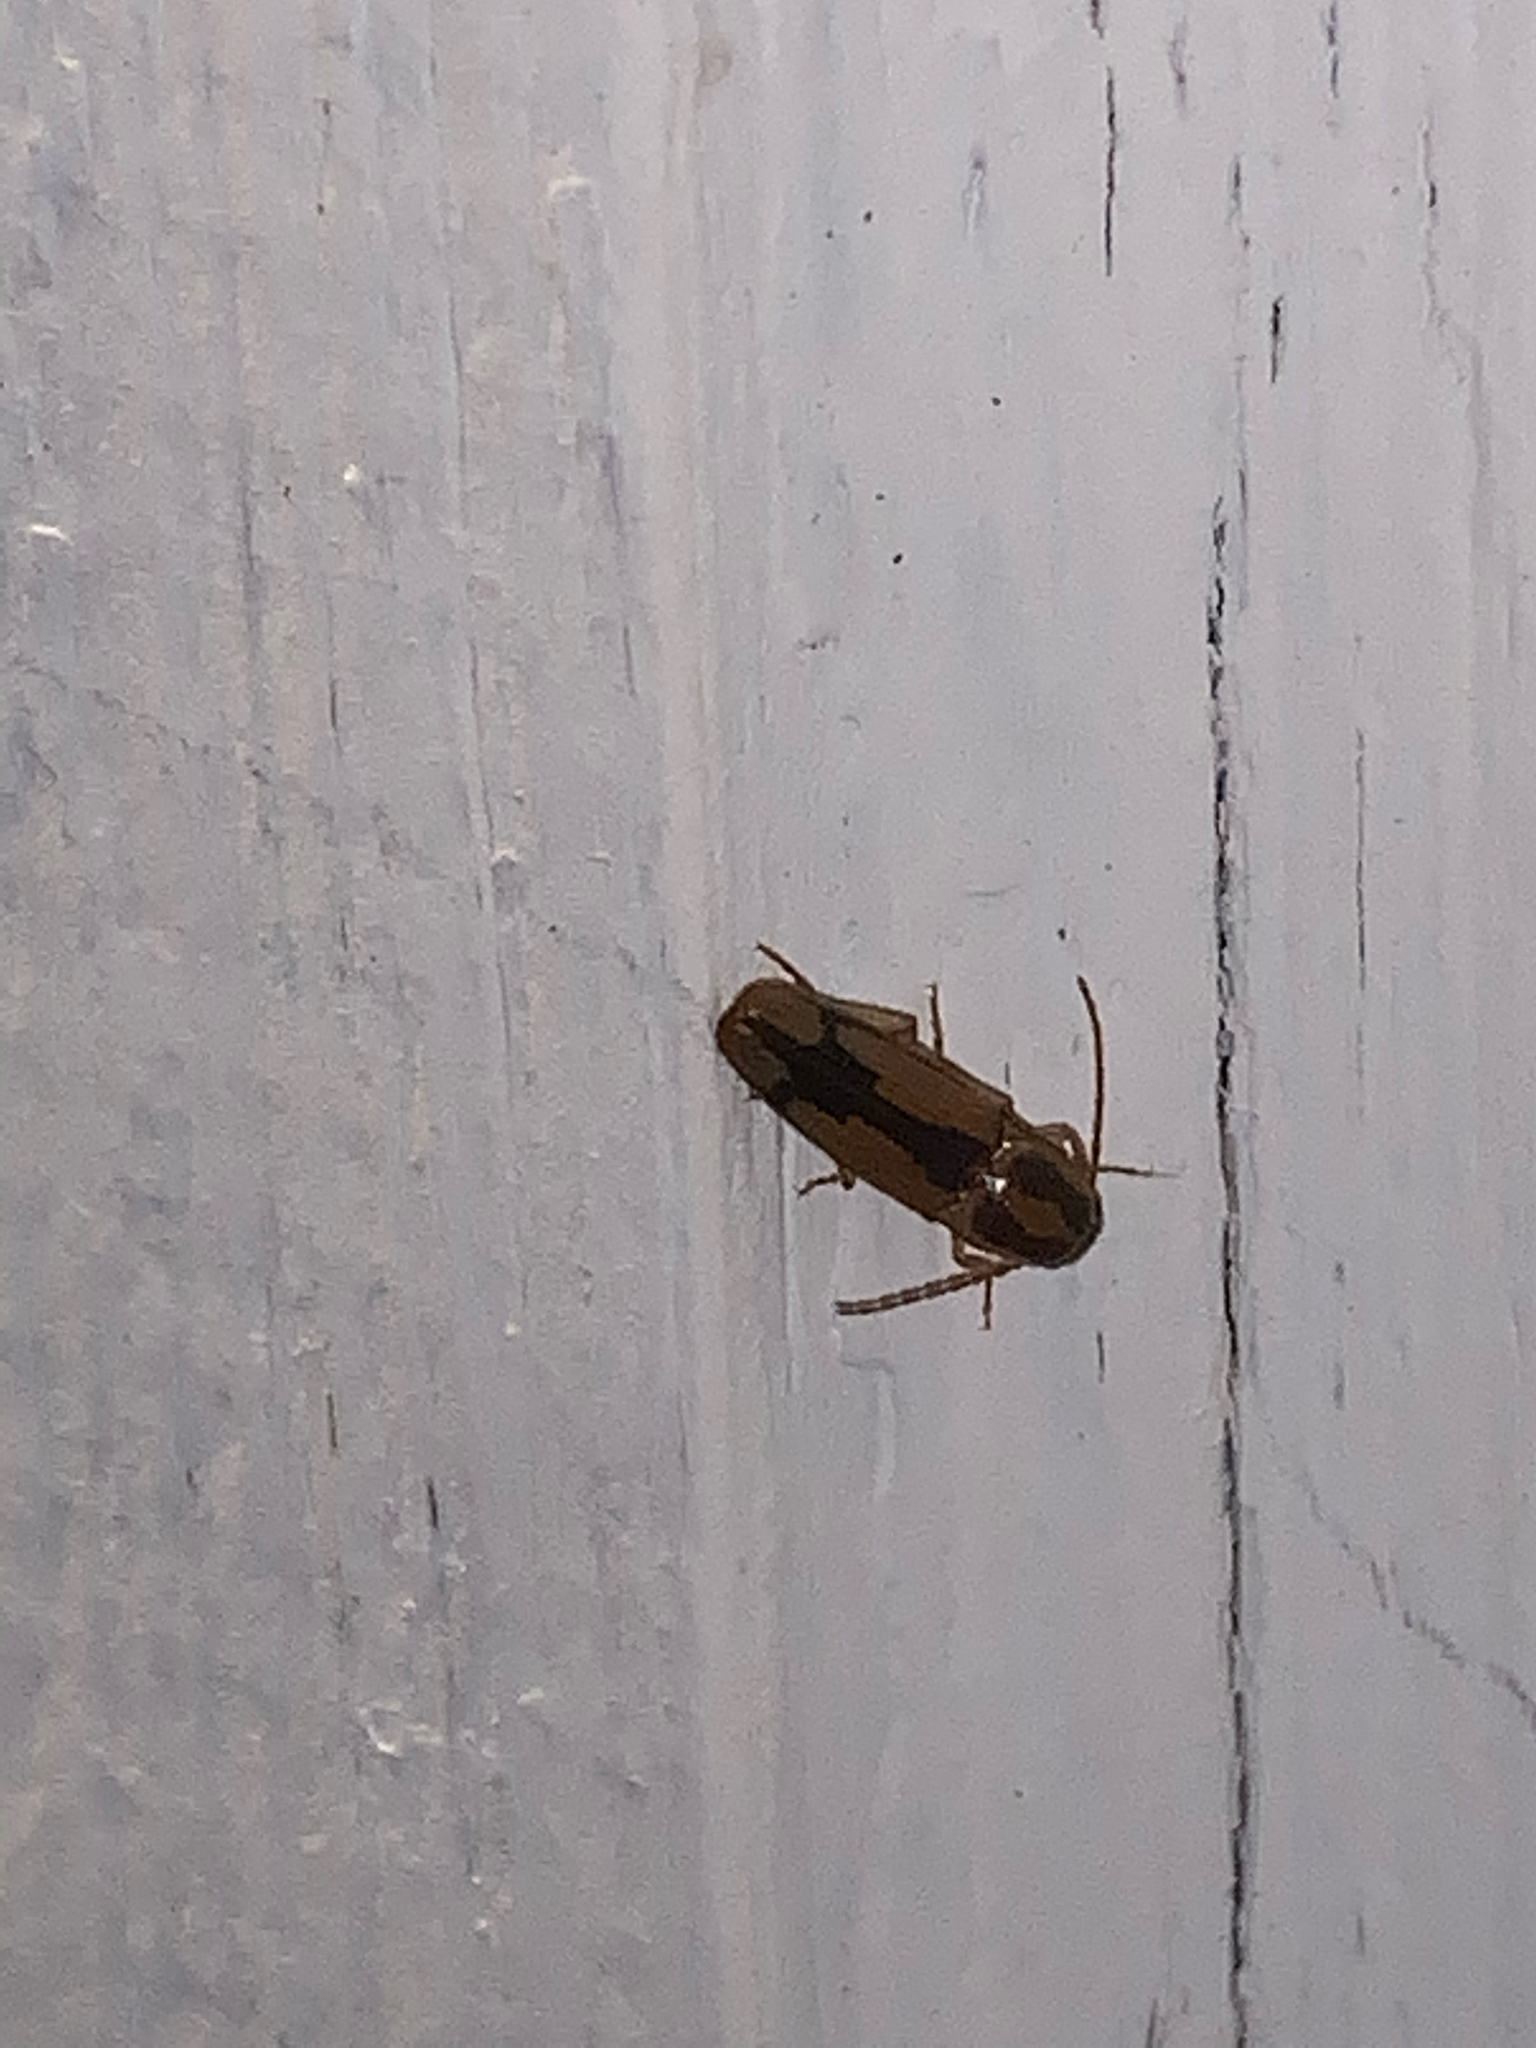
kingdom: Animalia
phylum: Arthropoda
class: Insecta
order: Coleoptera
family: Elateridae
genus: Monocrepidius
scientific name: Monocrepidius
